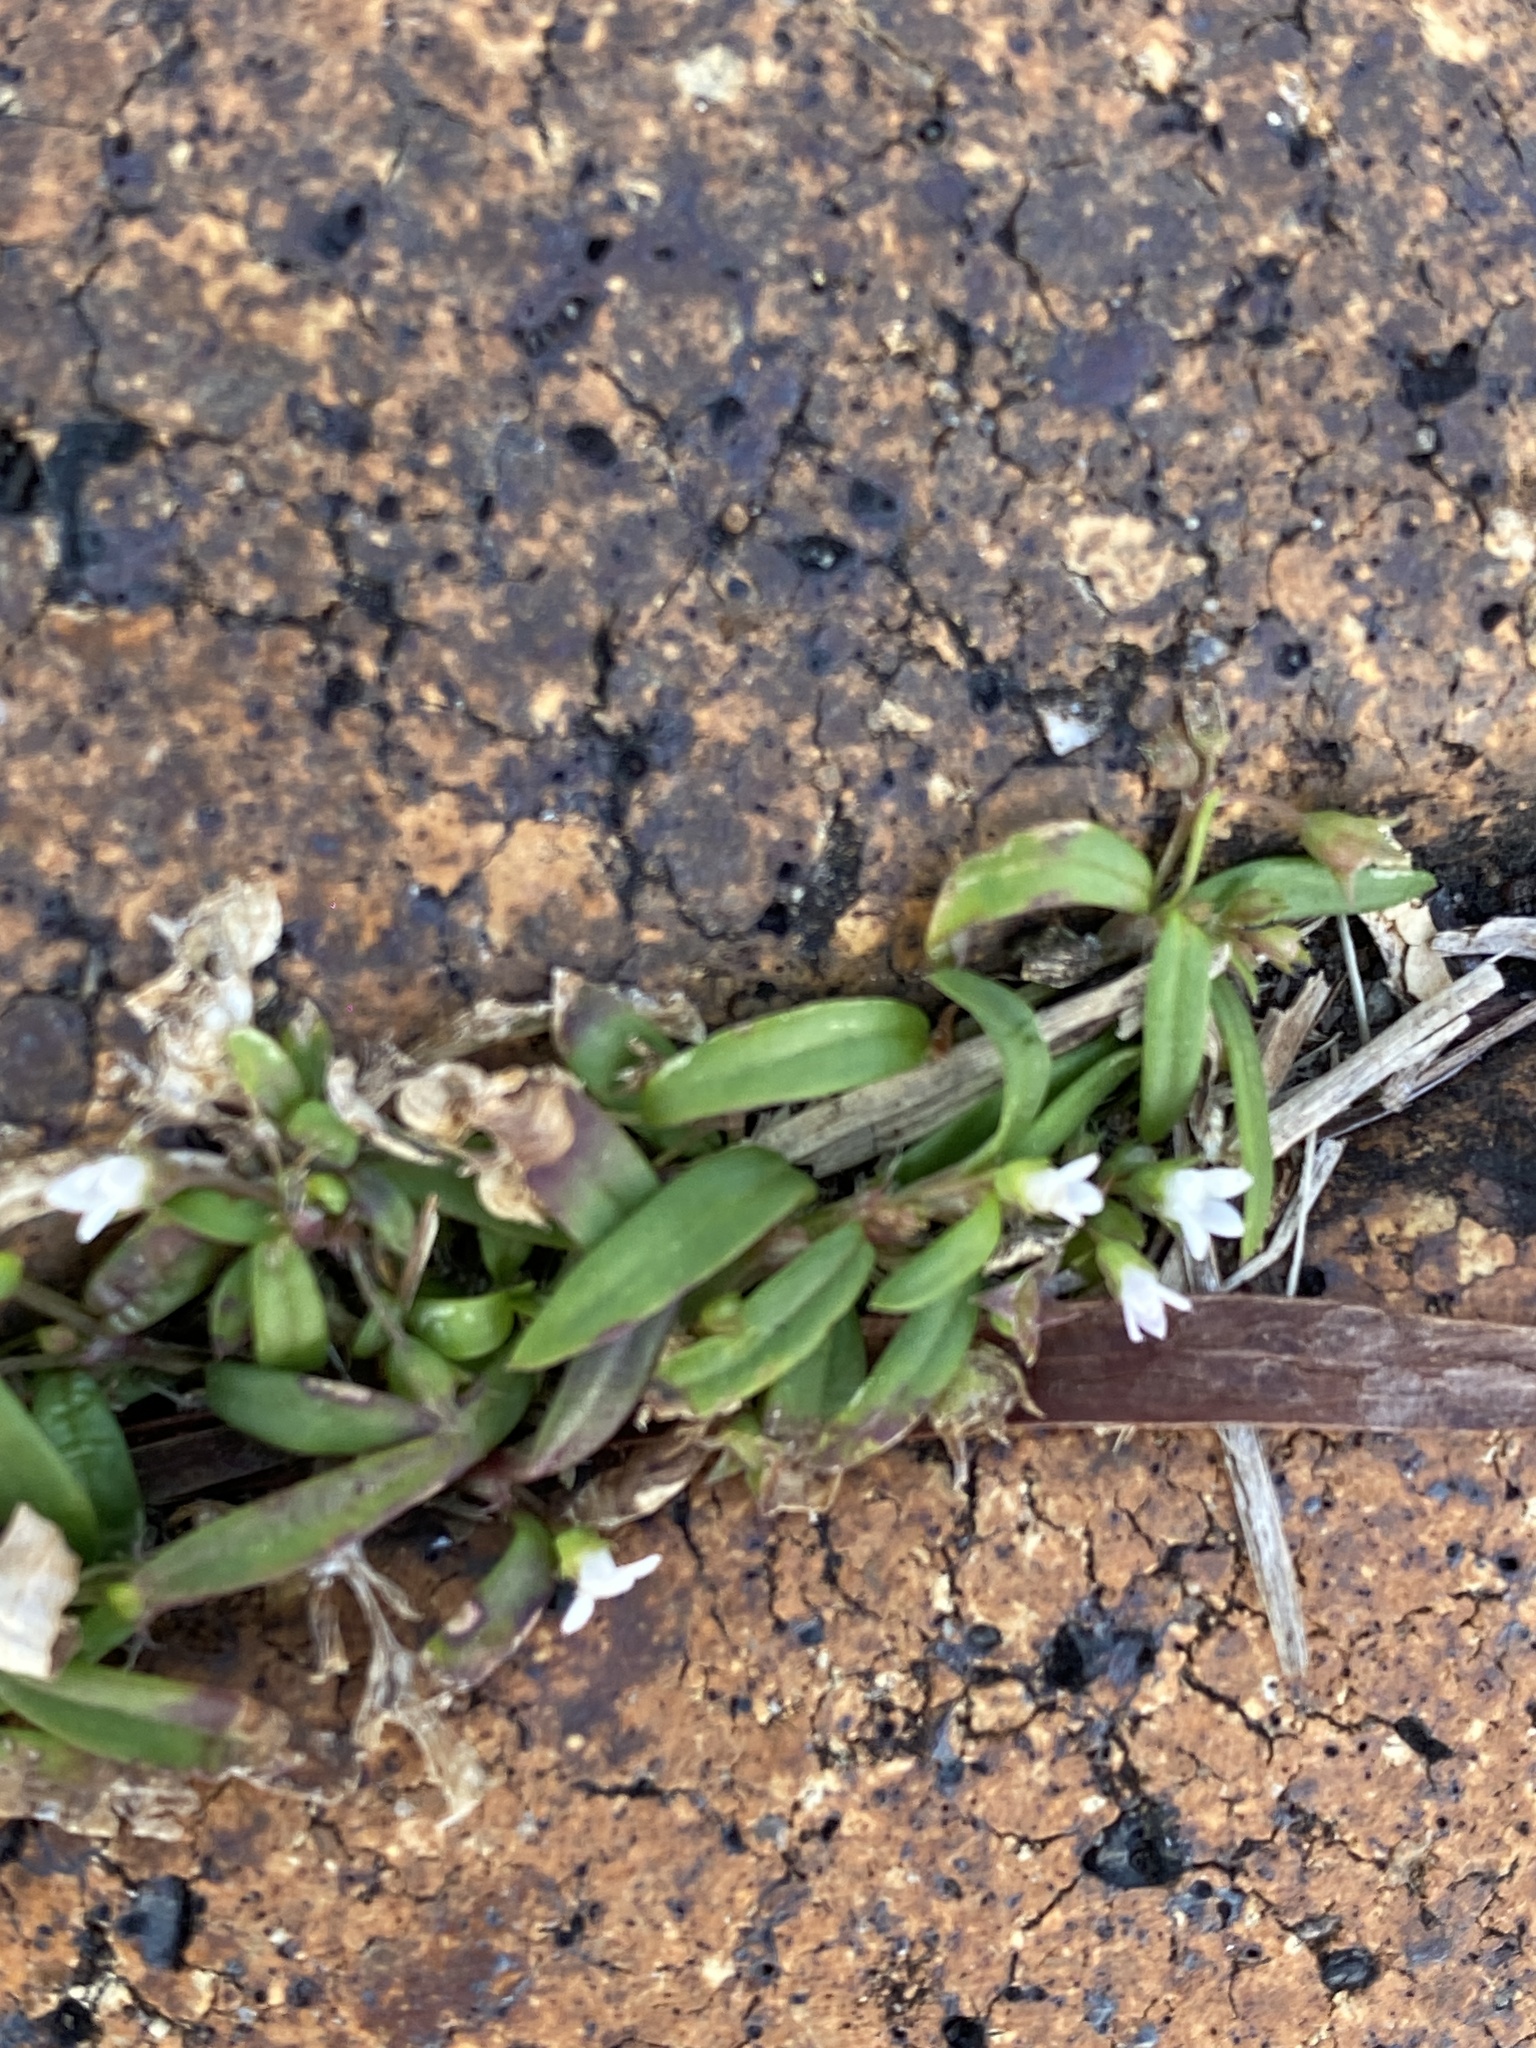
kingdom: Plantae
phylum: Tracheophyta
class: Magnoliopsida
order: Gentianales
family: Rubiaceae
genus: Oldenlandia
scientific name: Oldenlandia corymbosa
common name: Flat-top mille graines
